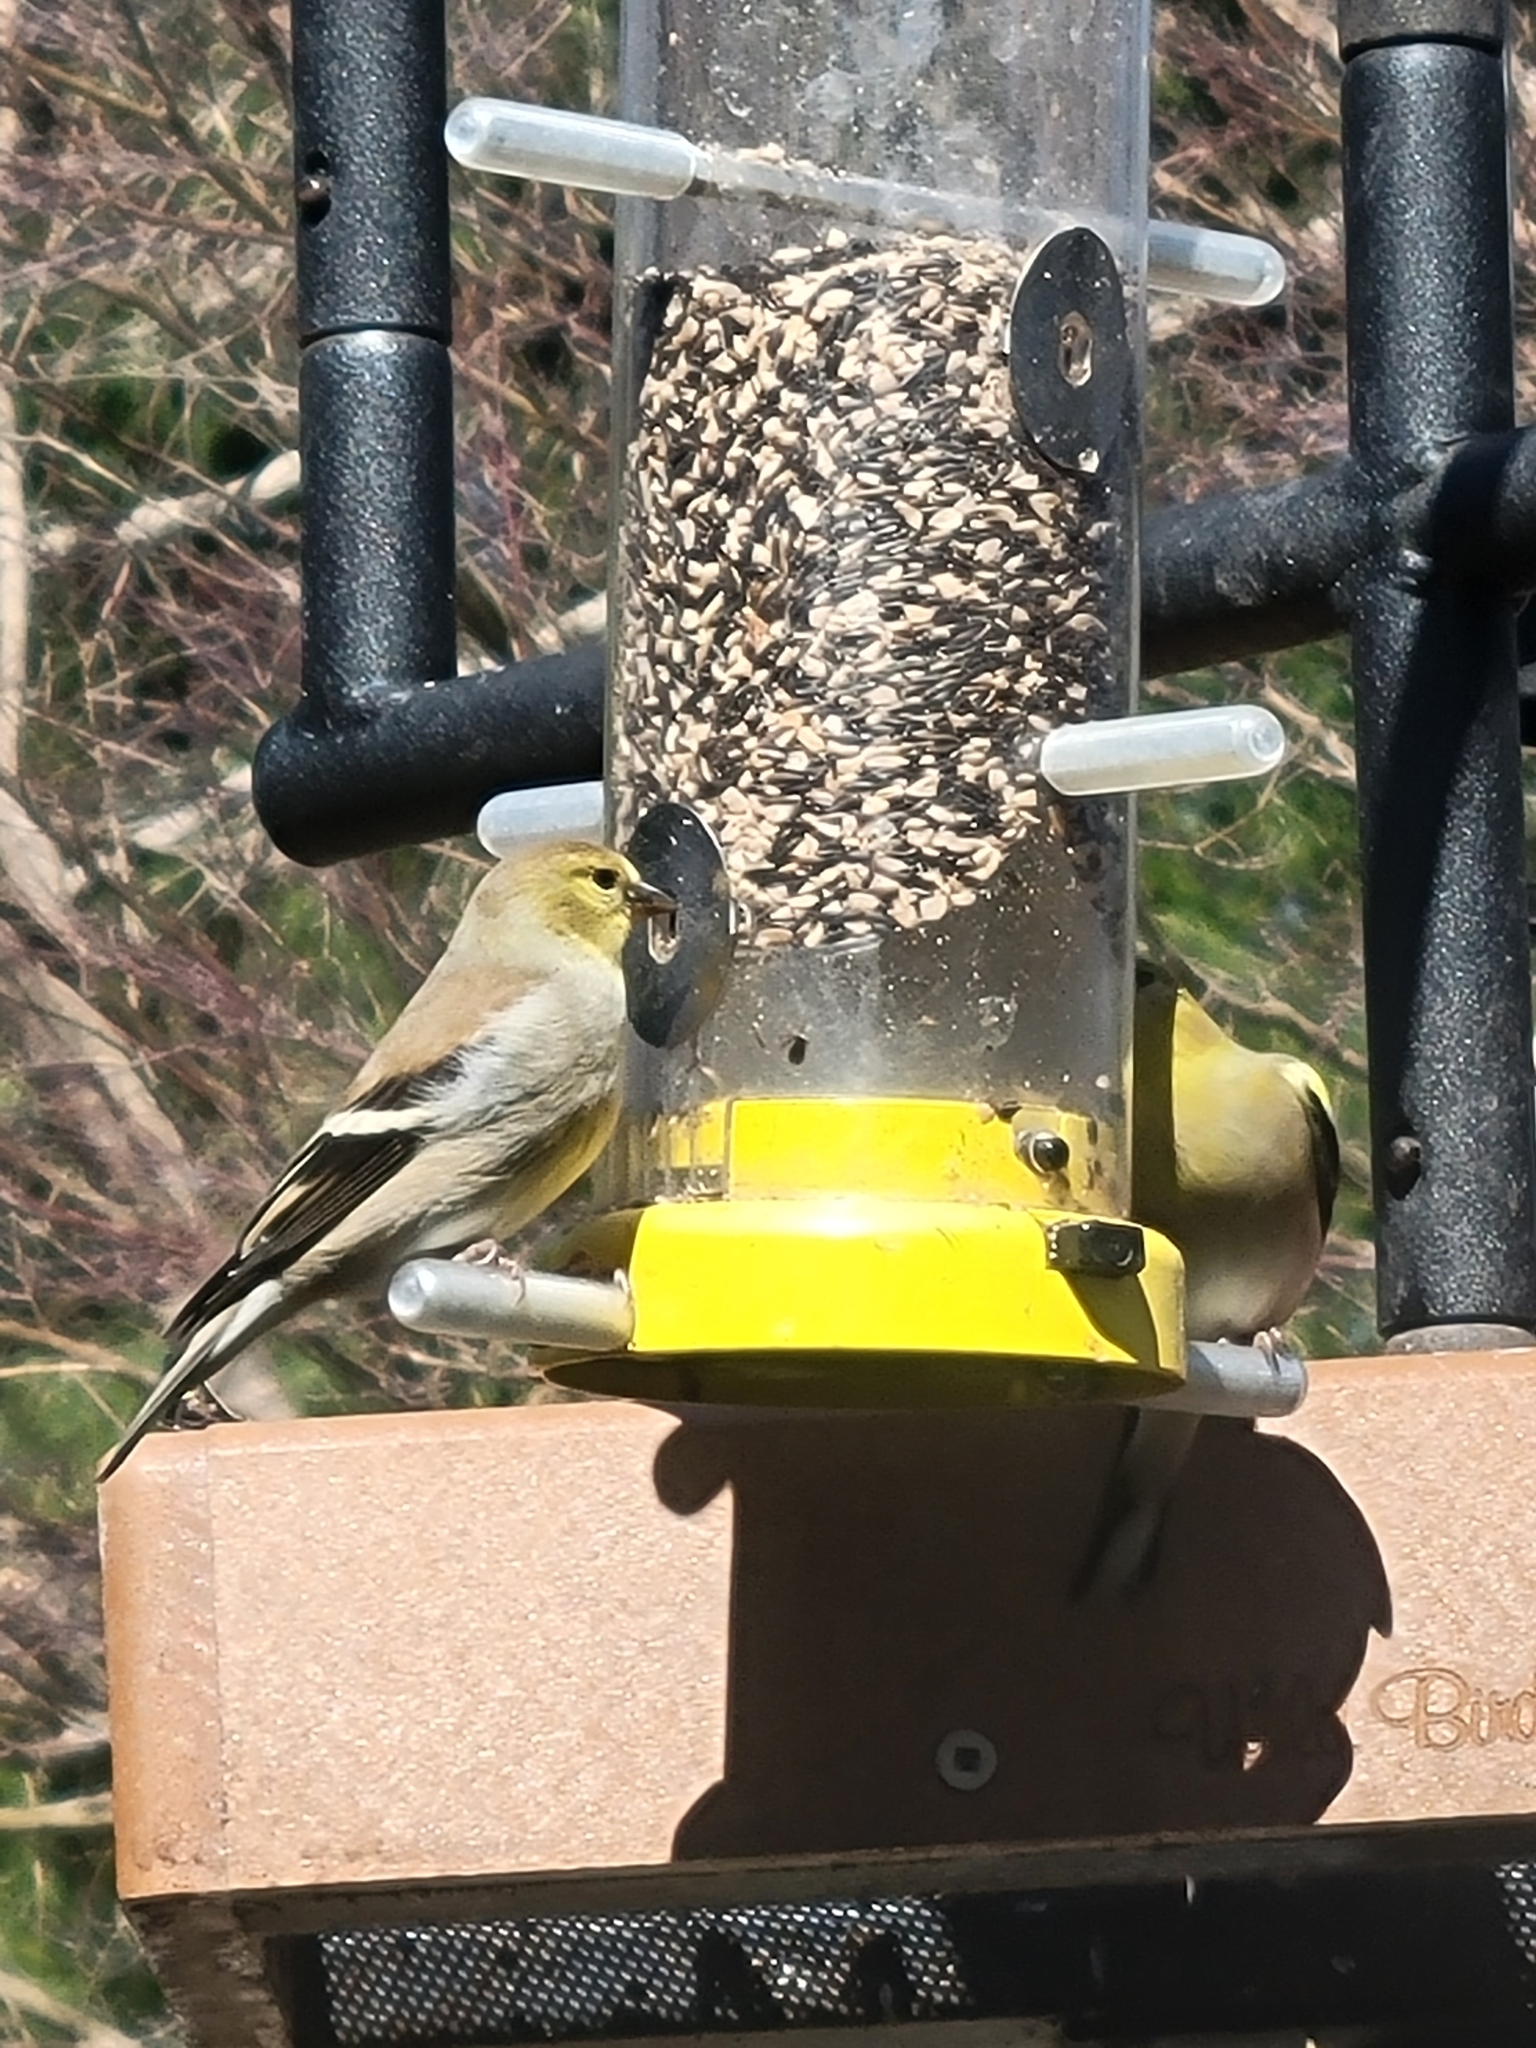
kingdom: Animalia
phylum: Chordata
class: Aves
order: Passeriformes
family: Fringillidae
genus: Spinus
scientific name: Spinus tristis
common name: American goldfinch
